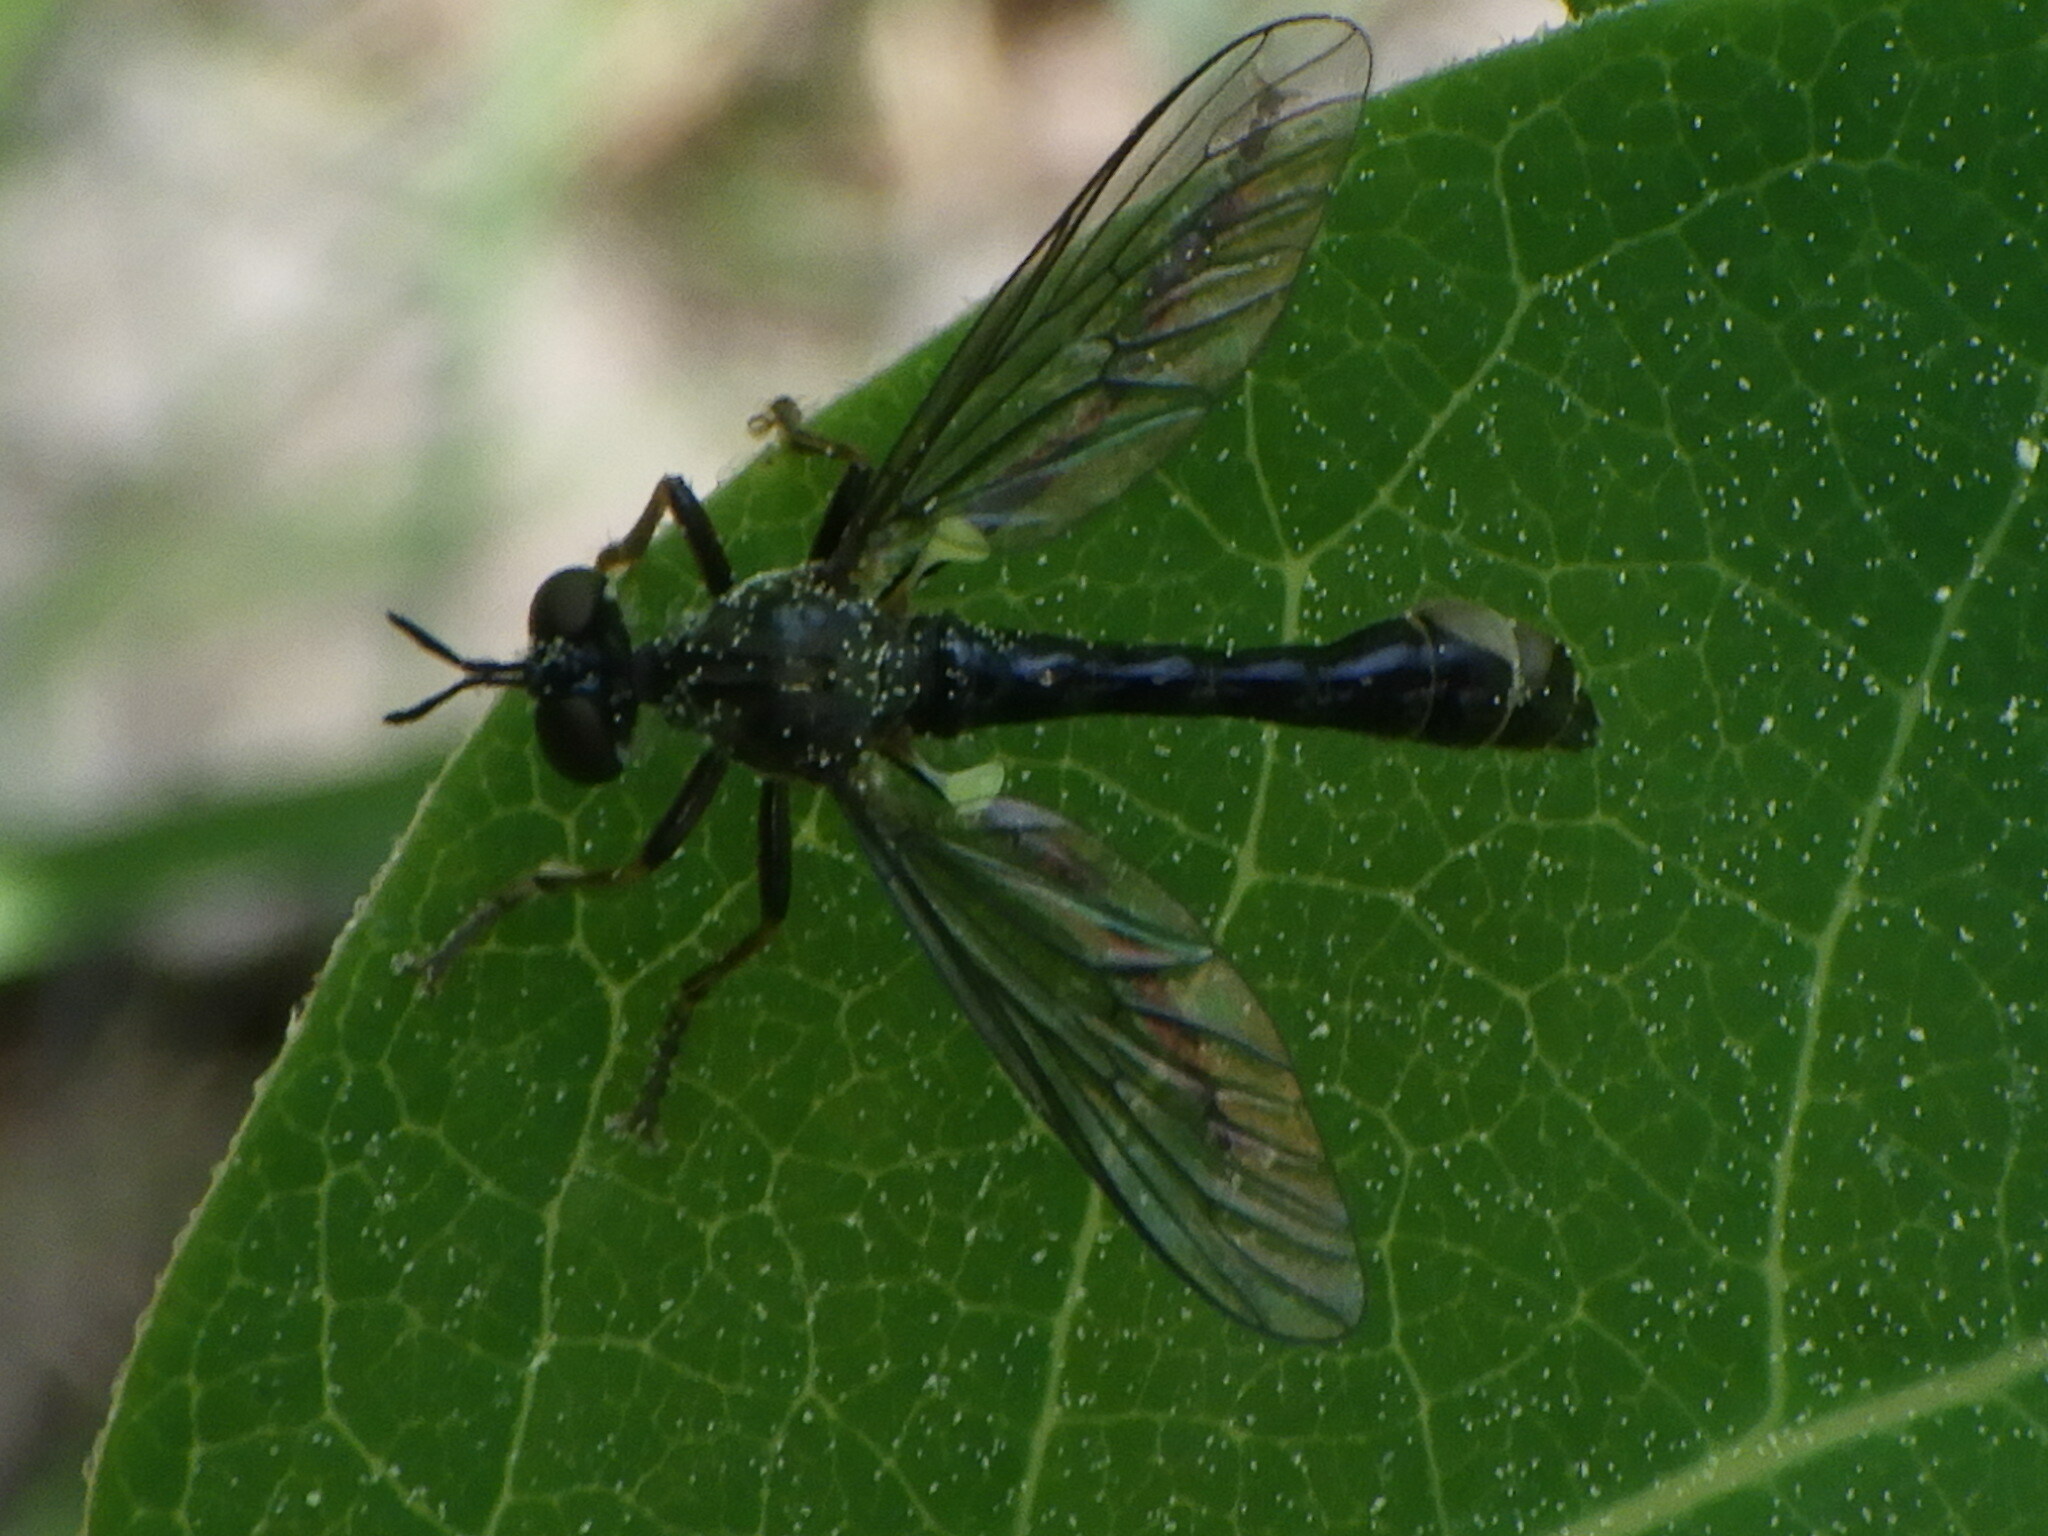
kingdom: Animalia
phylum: Arthropoda
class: Insecta
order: Diptera
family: Asilidae
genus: Dioctria
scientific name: Dioctria hyalipennis
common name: Stripe-legged robberfly
